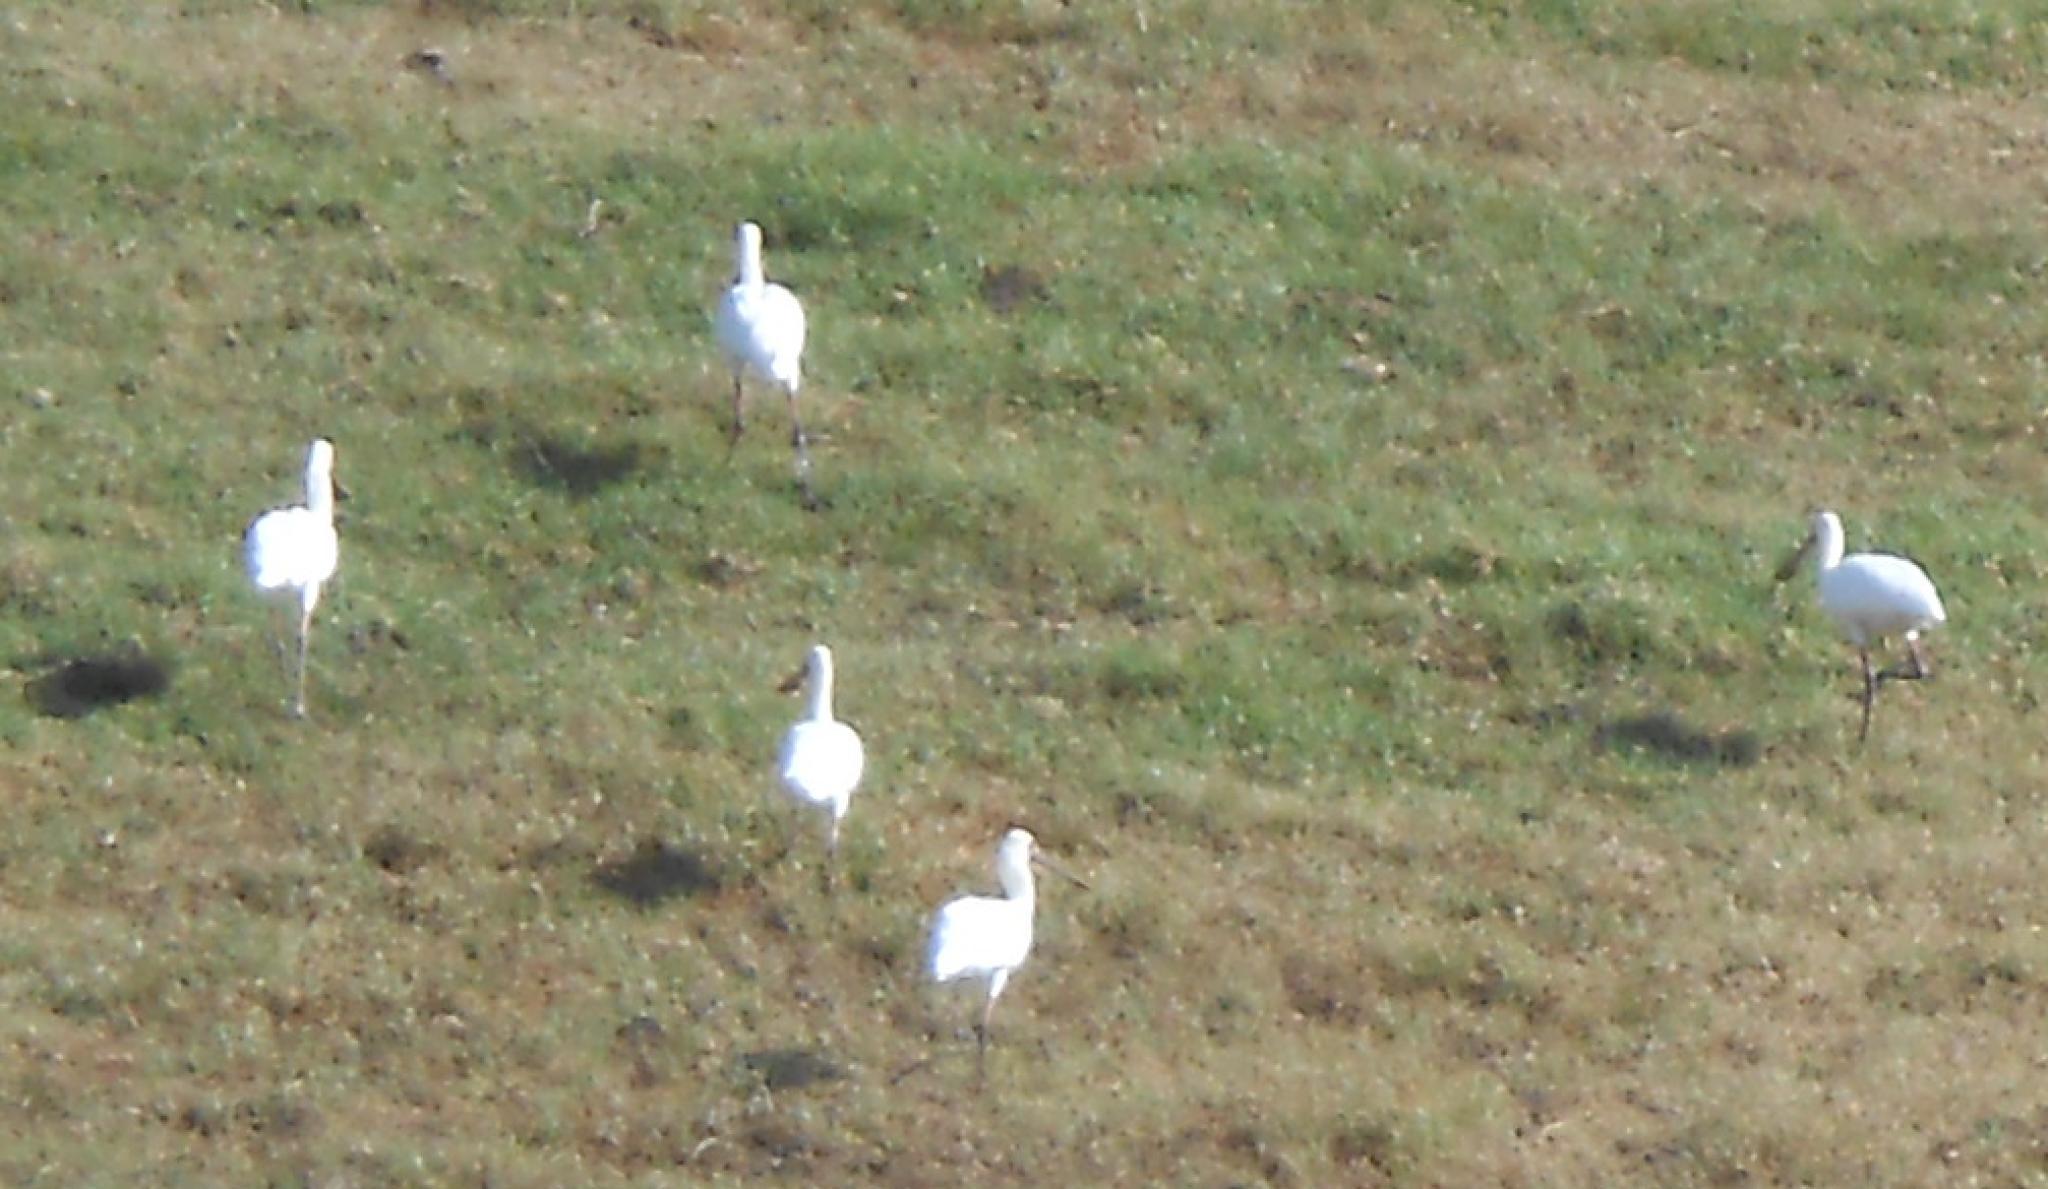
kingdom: Animalia
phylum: Chordata
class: Aves
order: Pelecaniformes
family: Threskiornithidae
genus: Platalea
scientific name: Platalea alba
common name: African spoonbill
